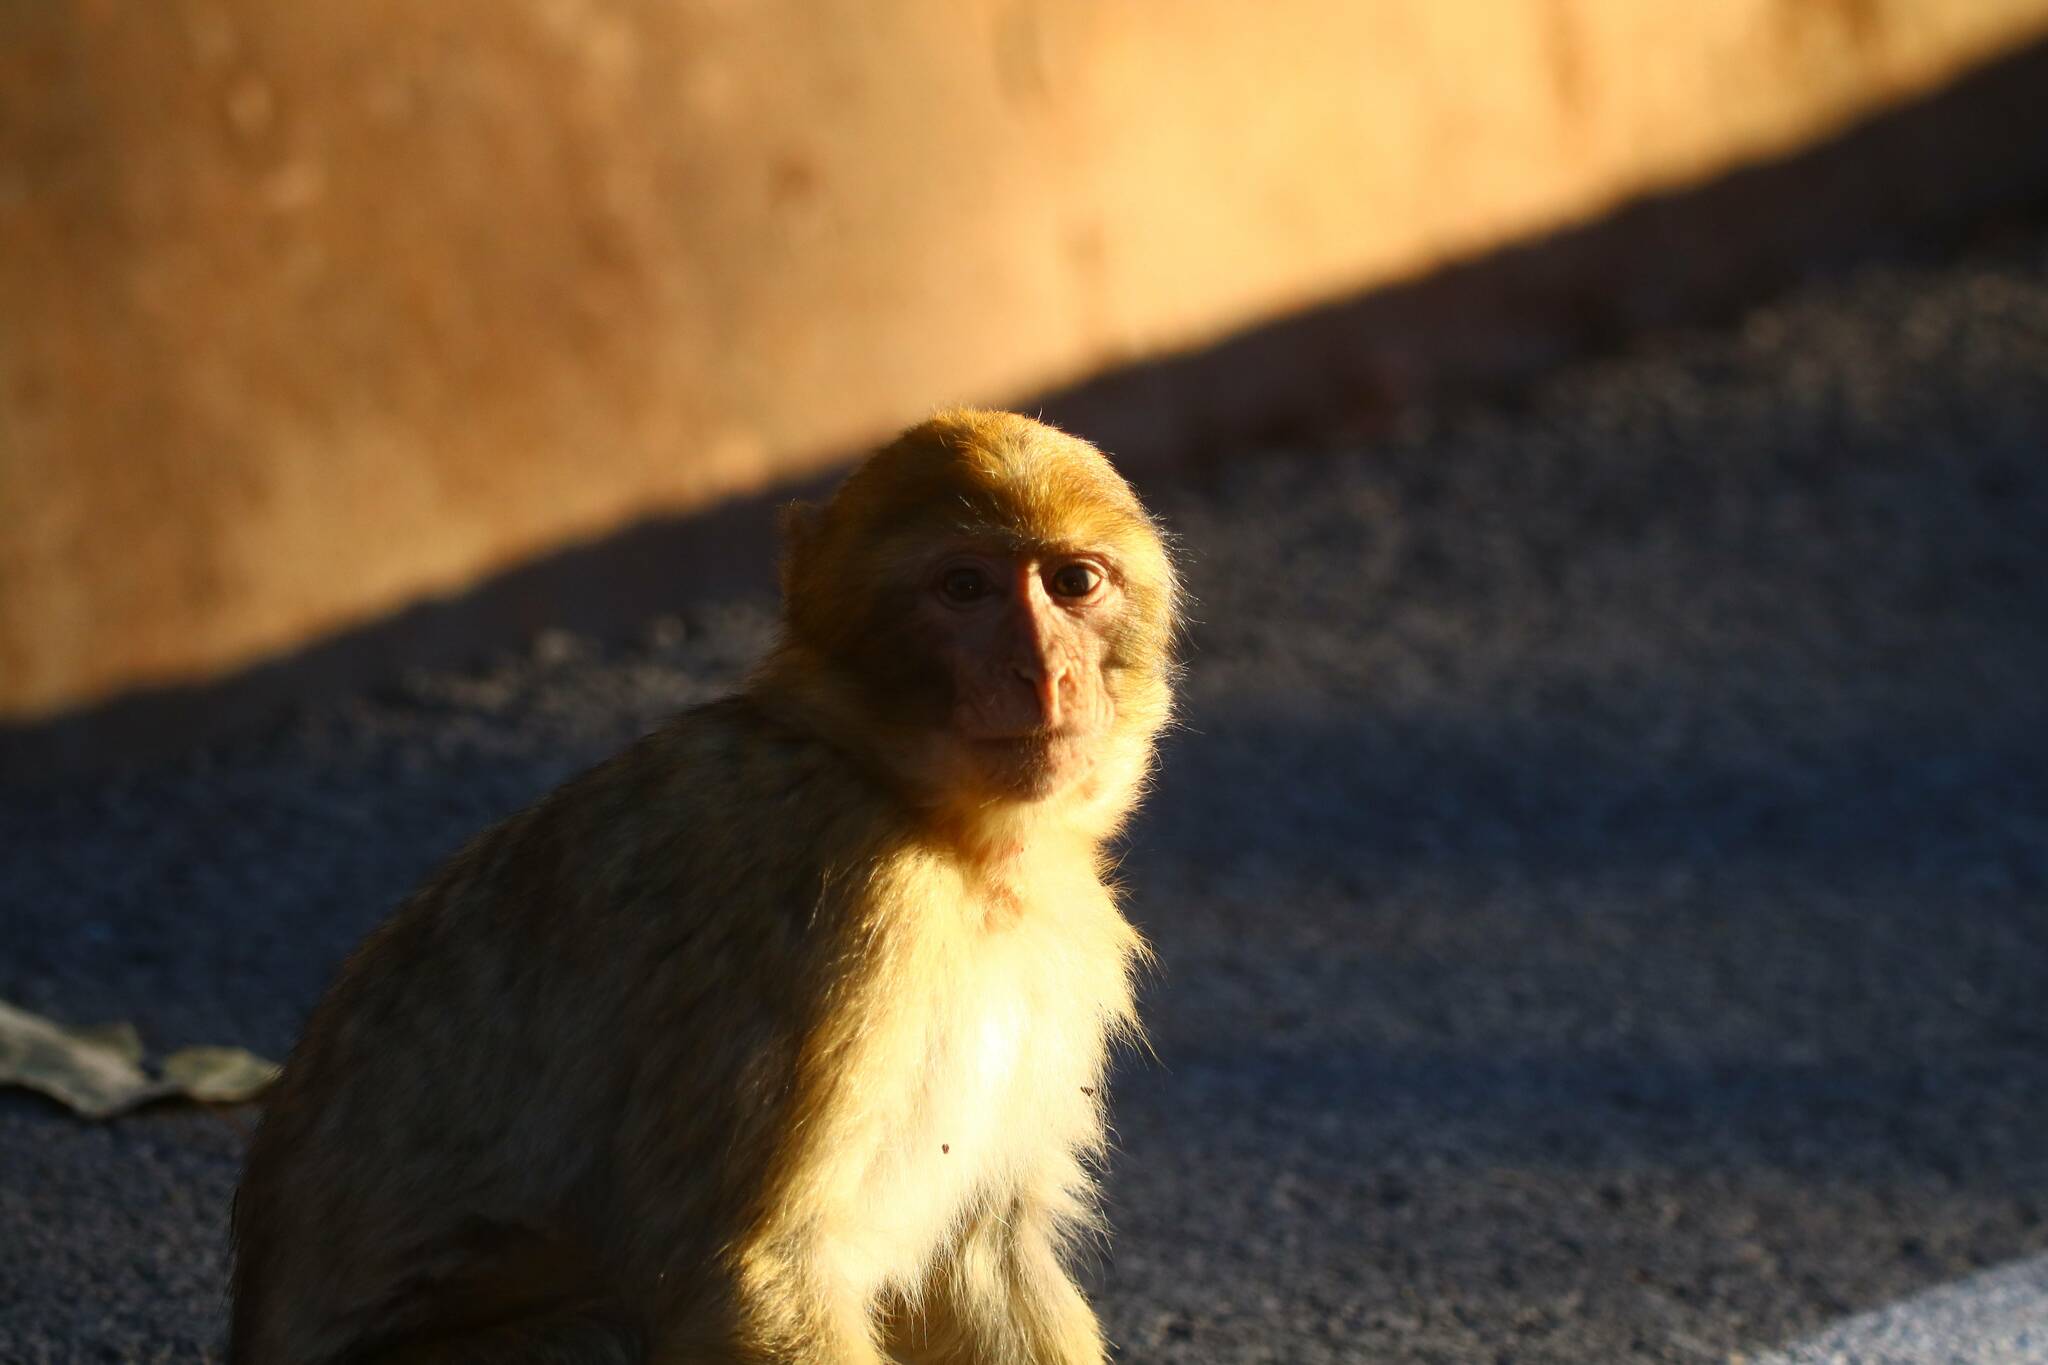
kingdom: Animalia
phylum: Chordata
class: Mammalia
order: Primates
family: Cercopithecidae
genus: Macaca
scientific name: Macaca sylvanus
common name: Barbary macaque
